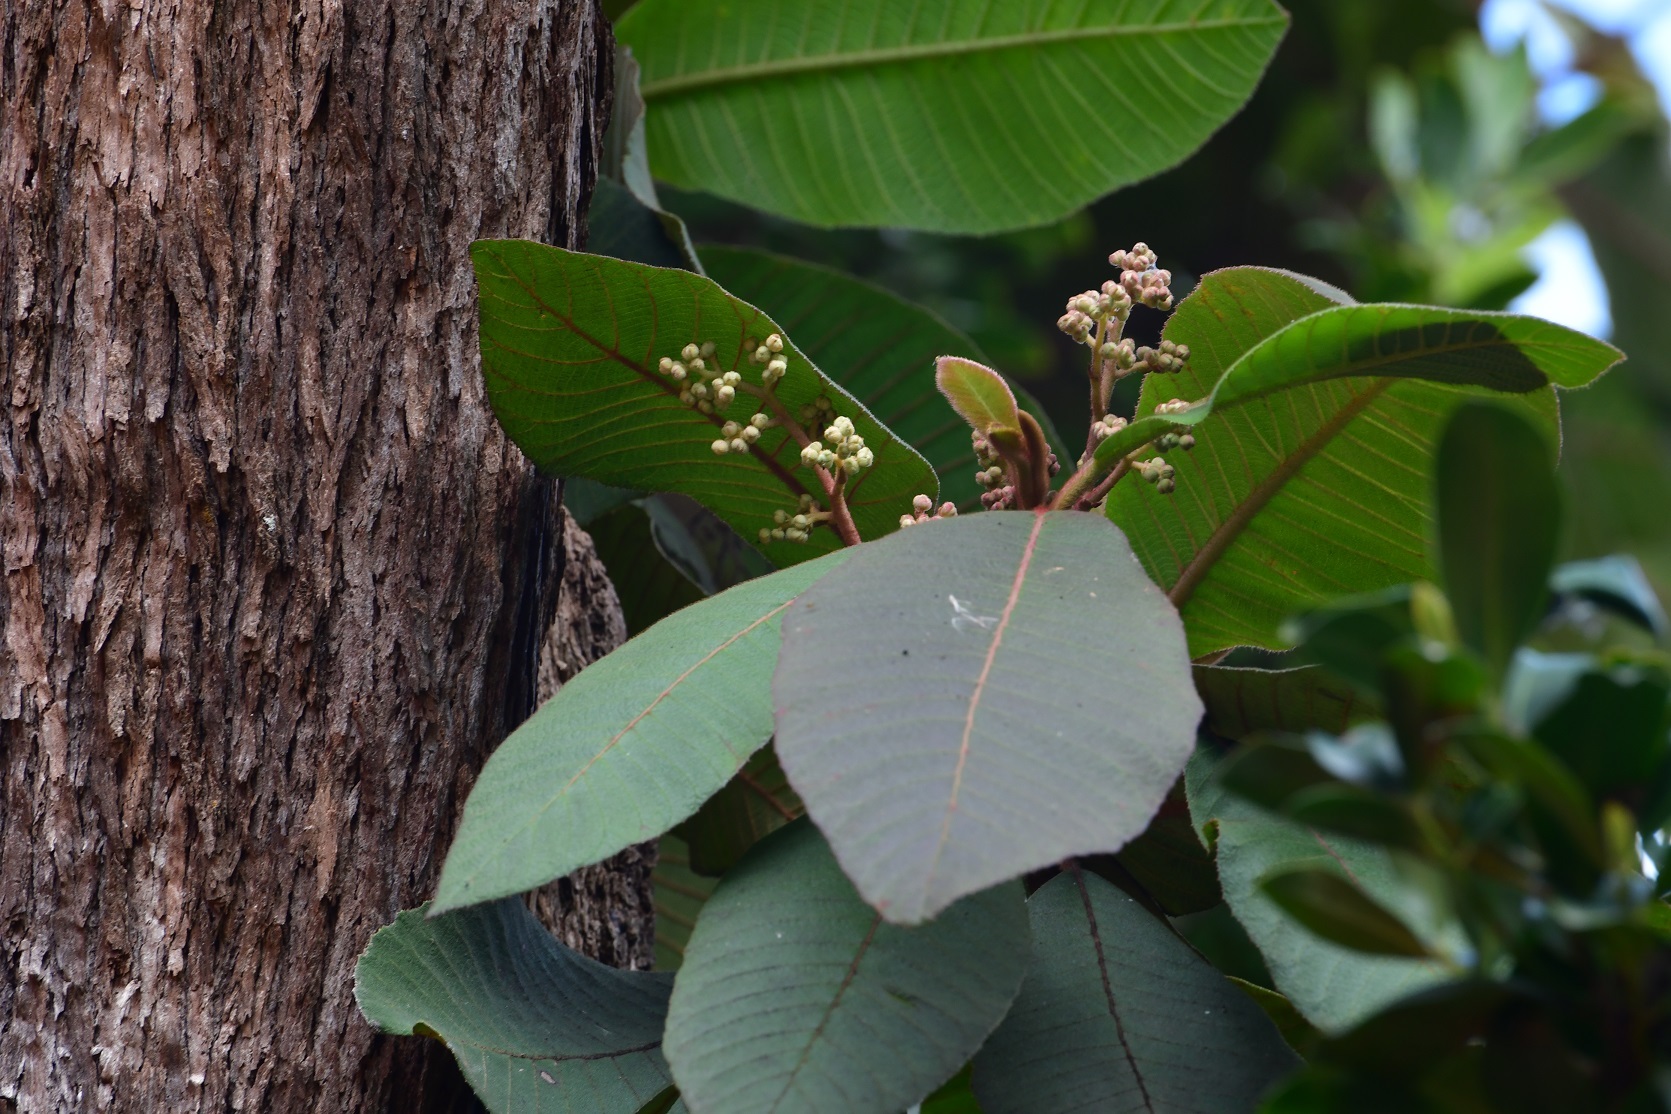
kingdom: Plantae
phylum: Tracheophyta
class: Magnoliopsida
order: Ericales
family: Actinidiaceae
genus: Saurauia
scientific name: Saurauia scabrida
